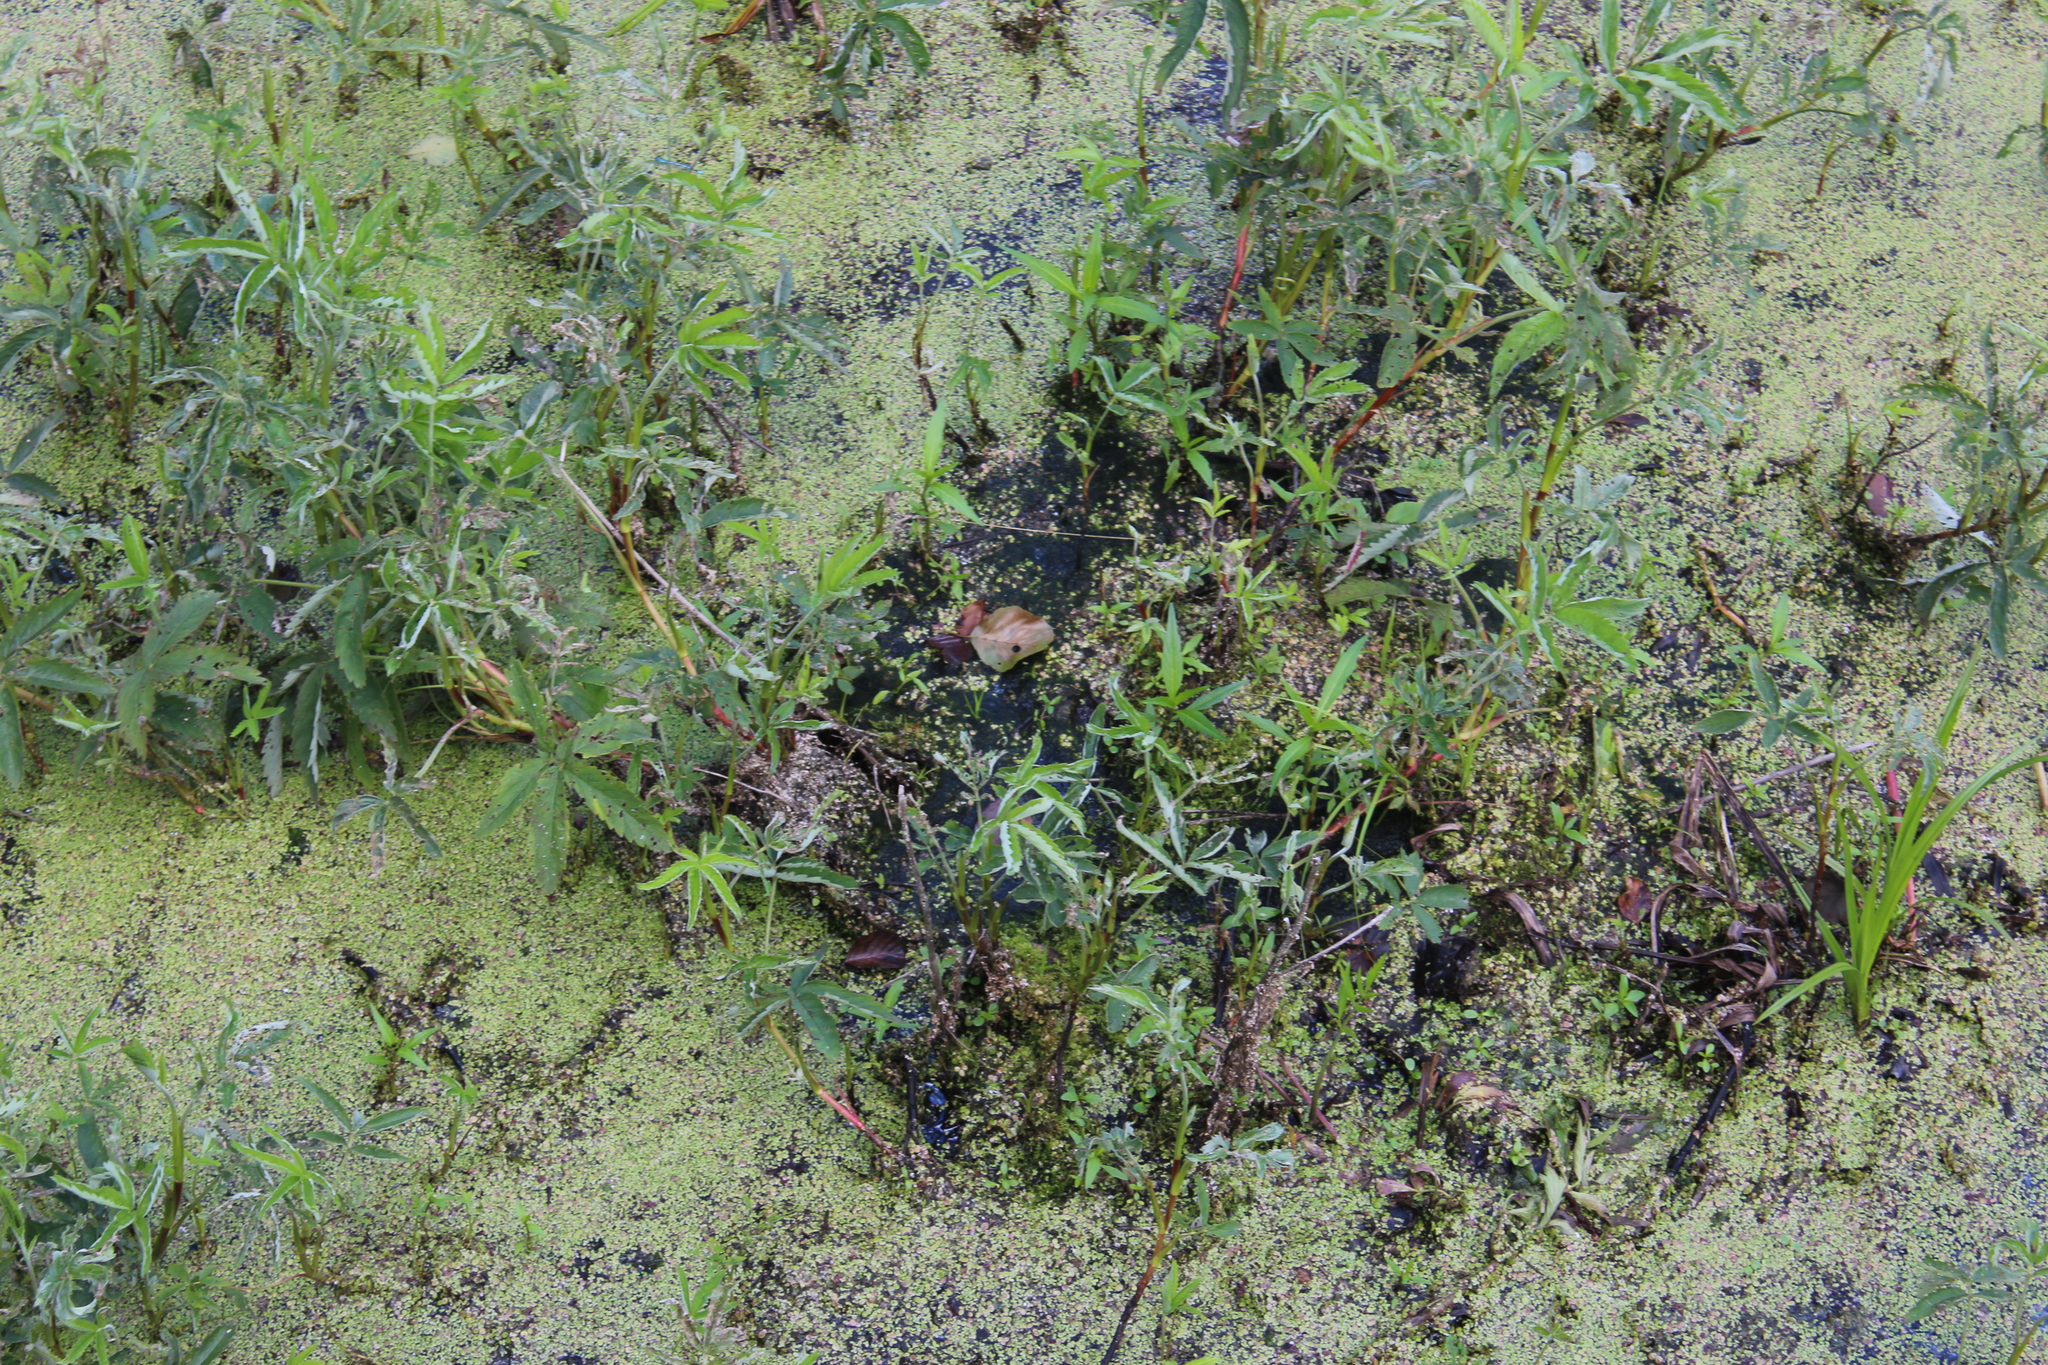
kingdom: Plantae
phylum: Tracheophyta
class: Magnoliopsida
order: Rosales
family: Rosaceae
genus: Comarum
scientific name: Comarum palustre
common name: Marsh cinquefoil
